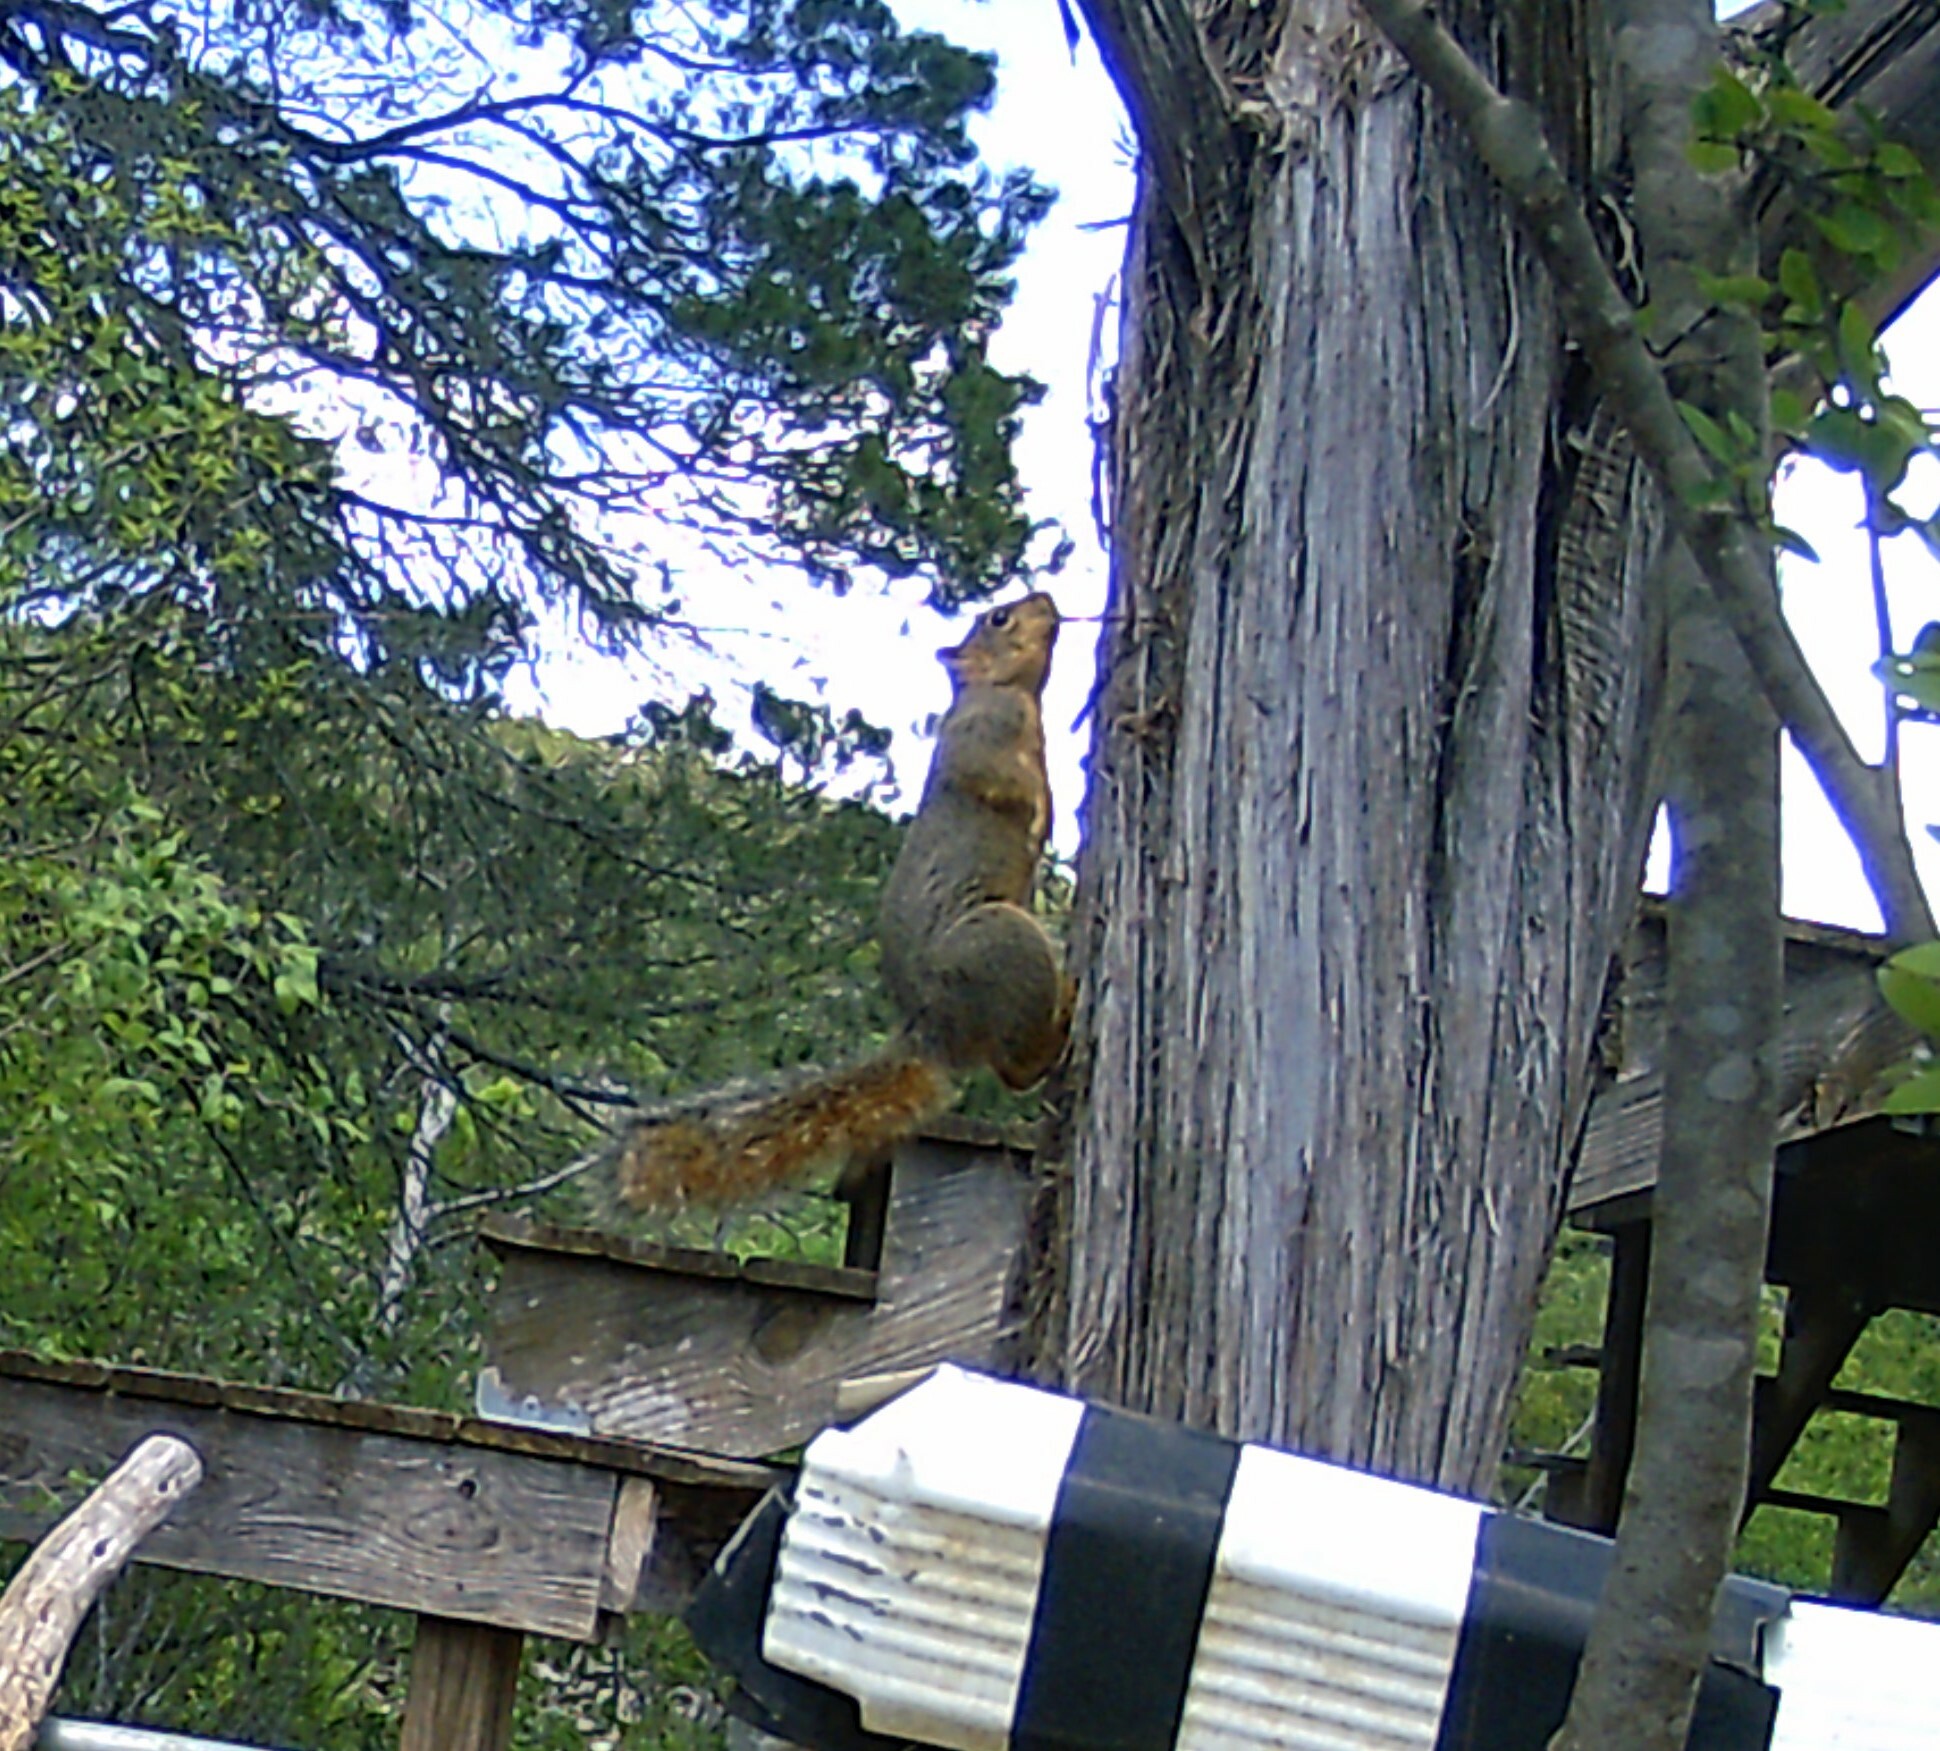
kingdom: Animalia
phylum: Chordata
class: Mammalia
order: Rodentia
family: Sciuridae
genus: Sciurus
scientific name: Sciurus niger
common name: Fox squirrel
